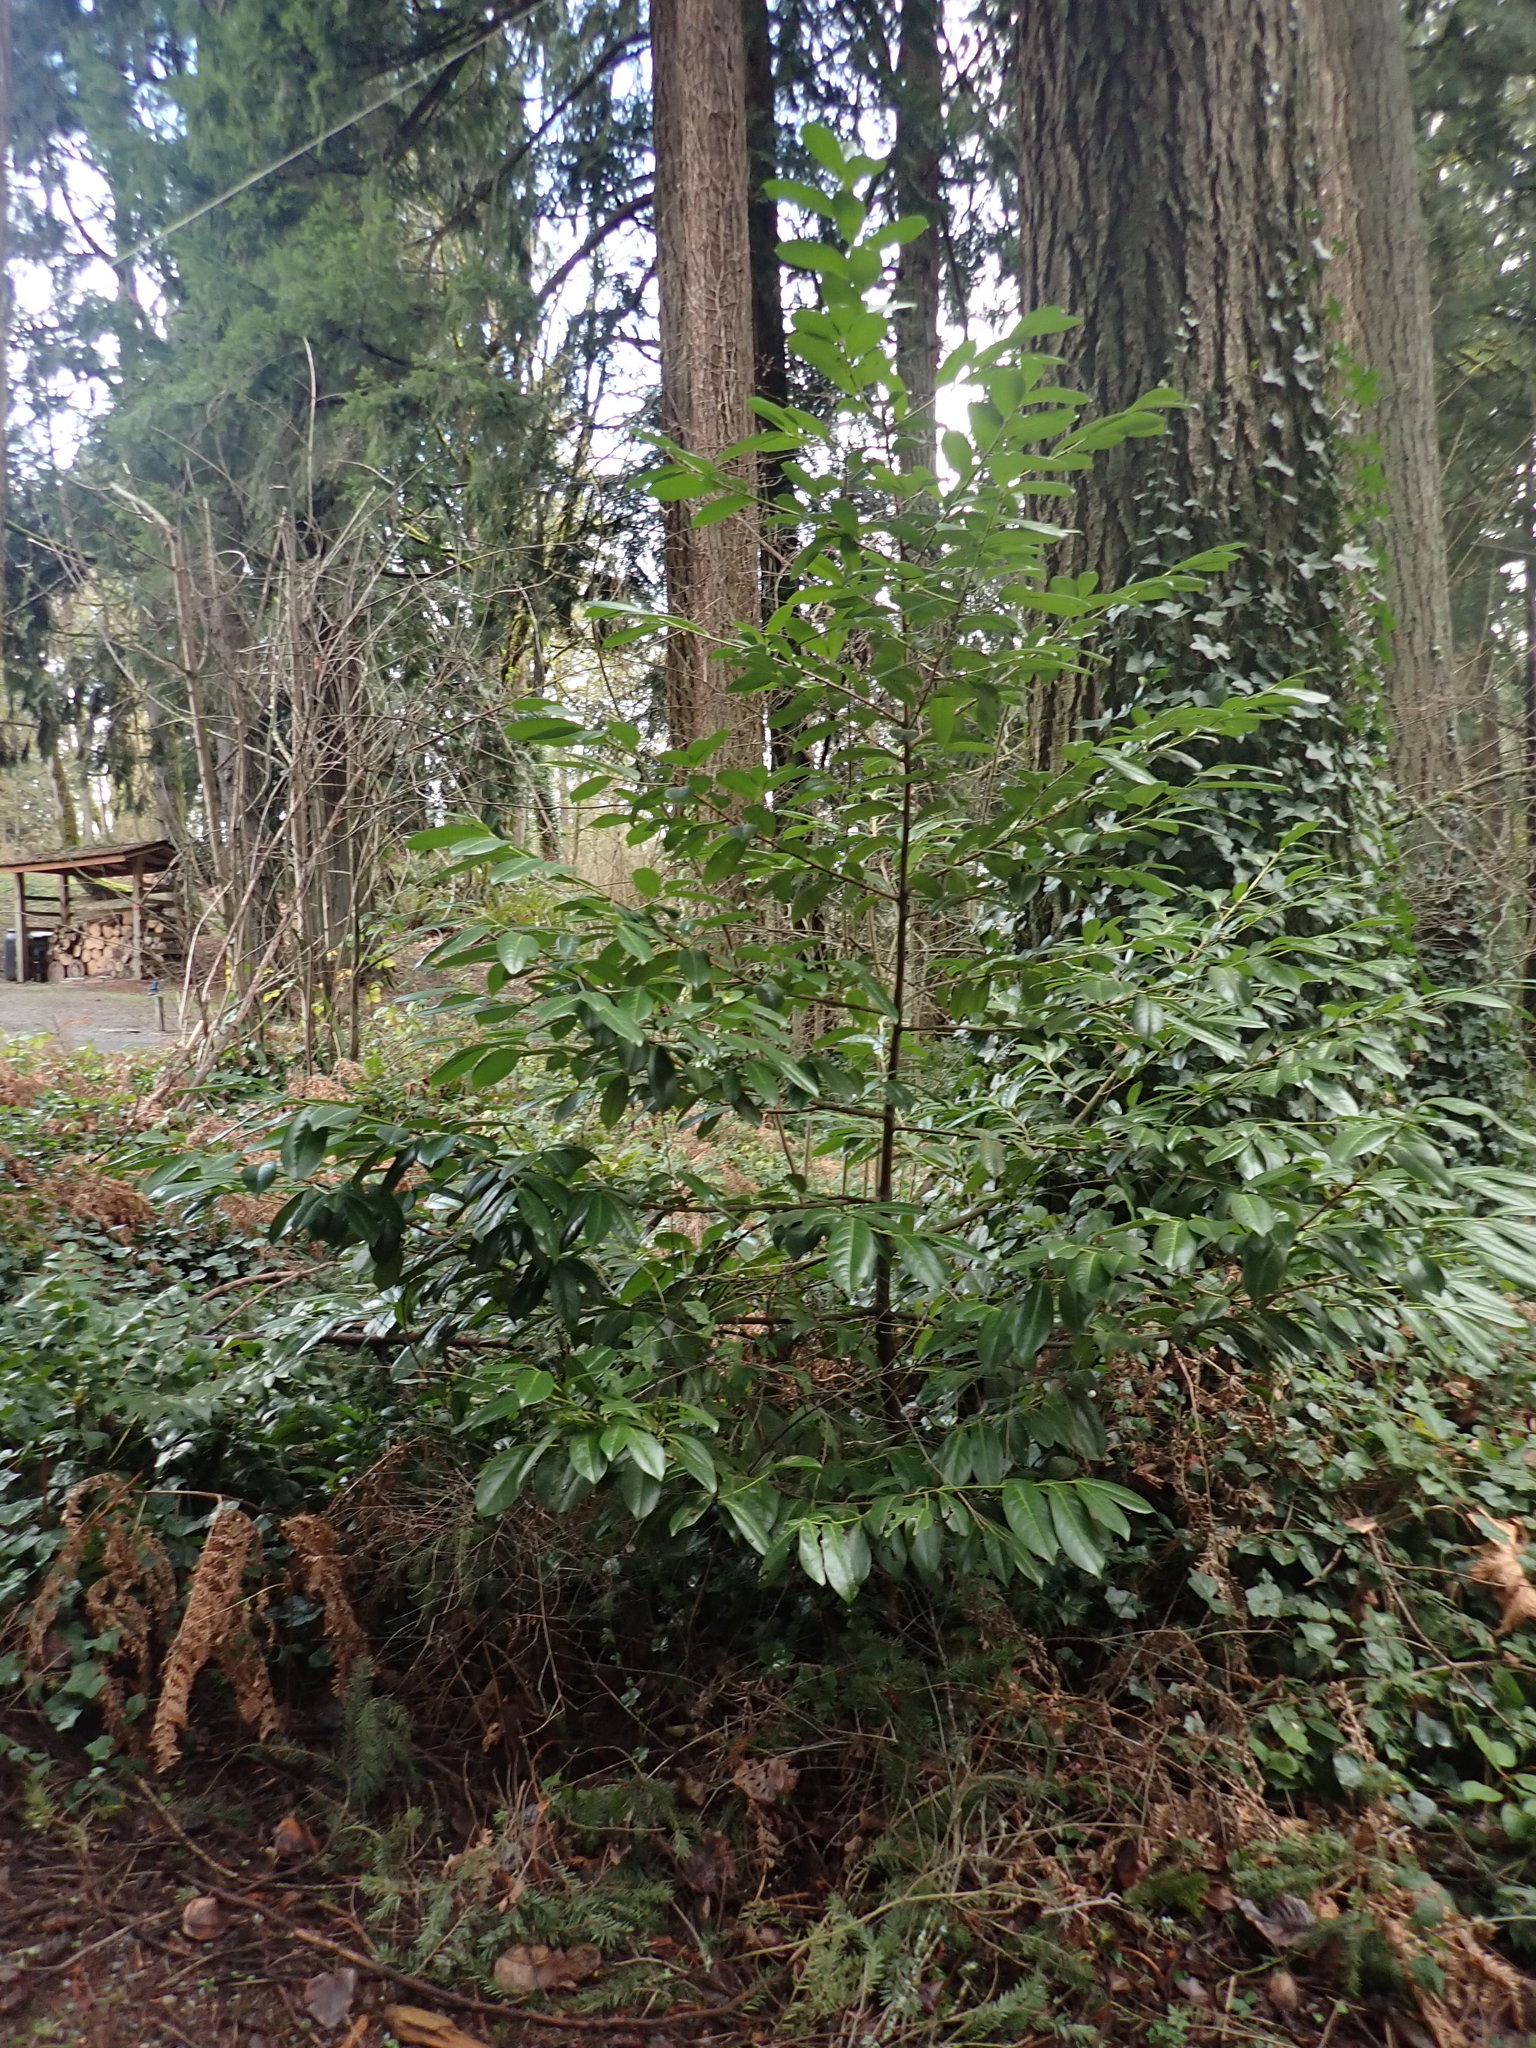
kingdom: Plantae
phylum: Tracheophyta
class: Magnoliopsida
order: Rosales
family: Rosaceae
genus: Prunus
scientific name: Prunus laurocerasus
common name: Cherry laurel
